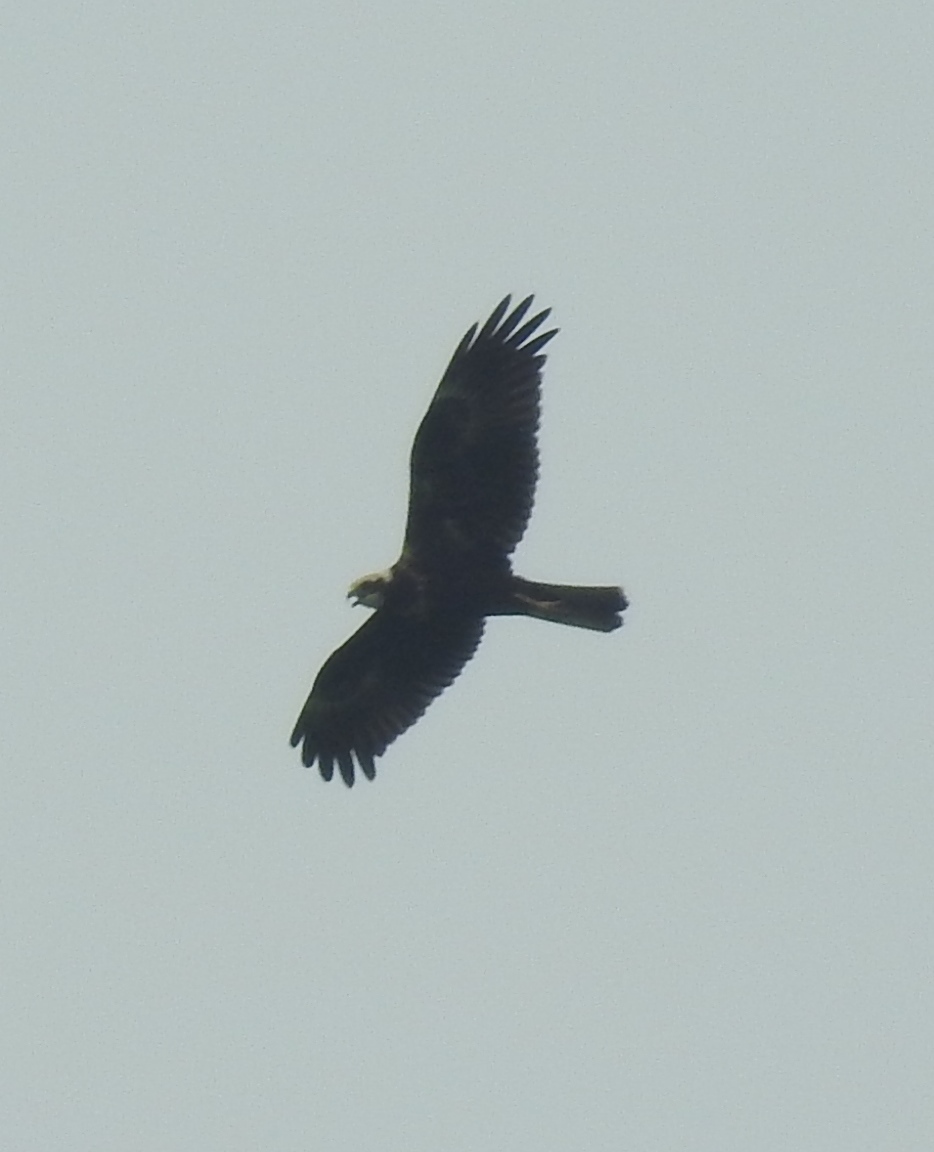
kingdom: Animalia
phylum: Chordata
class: Aves
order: Accipitriformes
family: Accipitridae
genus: Circus
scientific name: Circus aeruginosus
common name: Western marsh harrier
